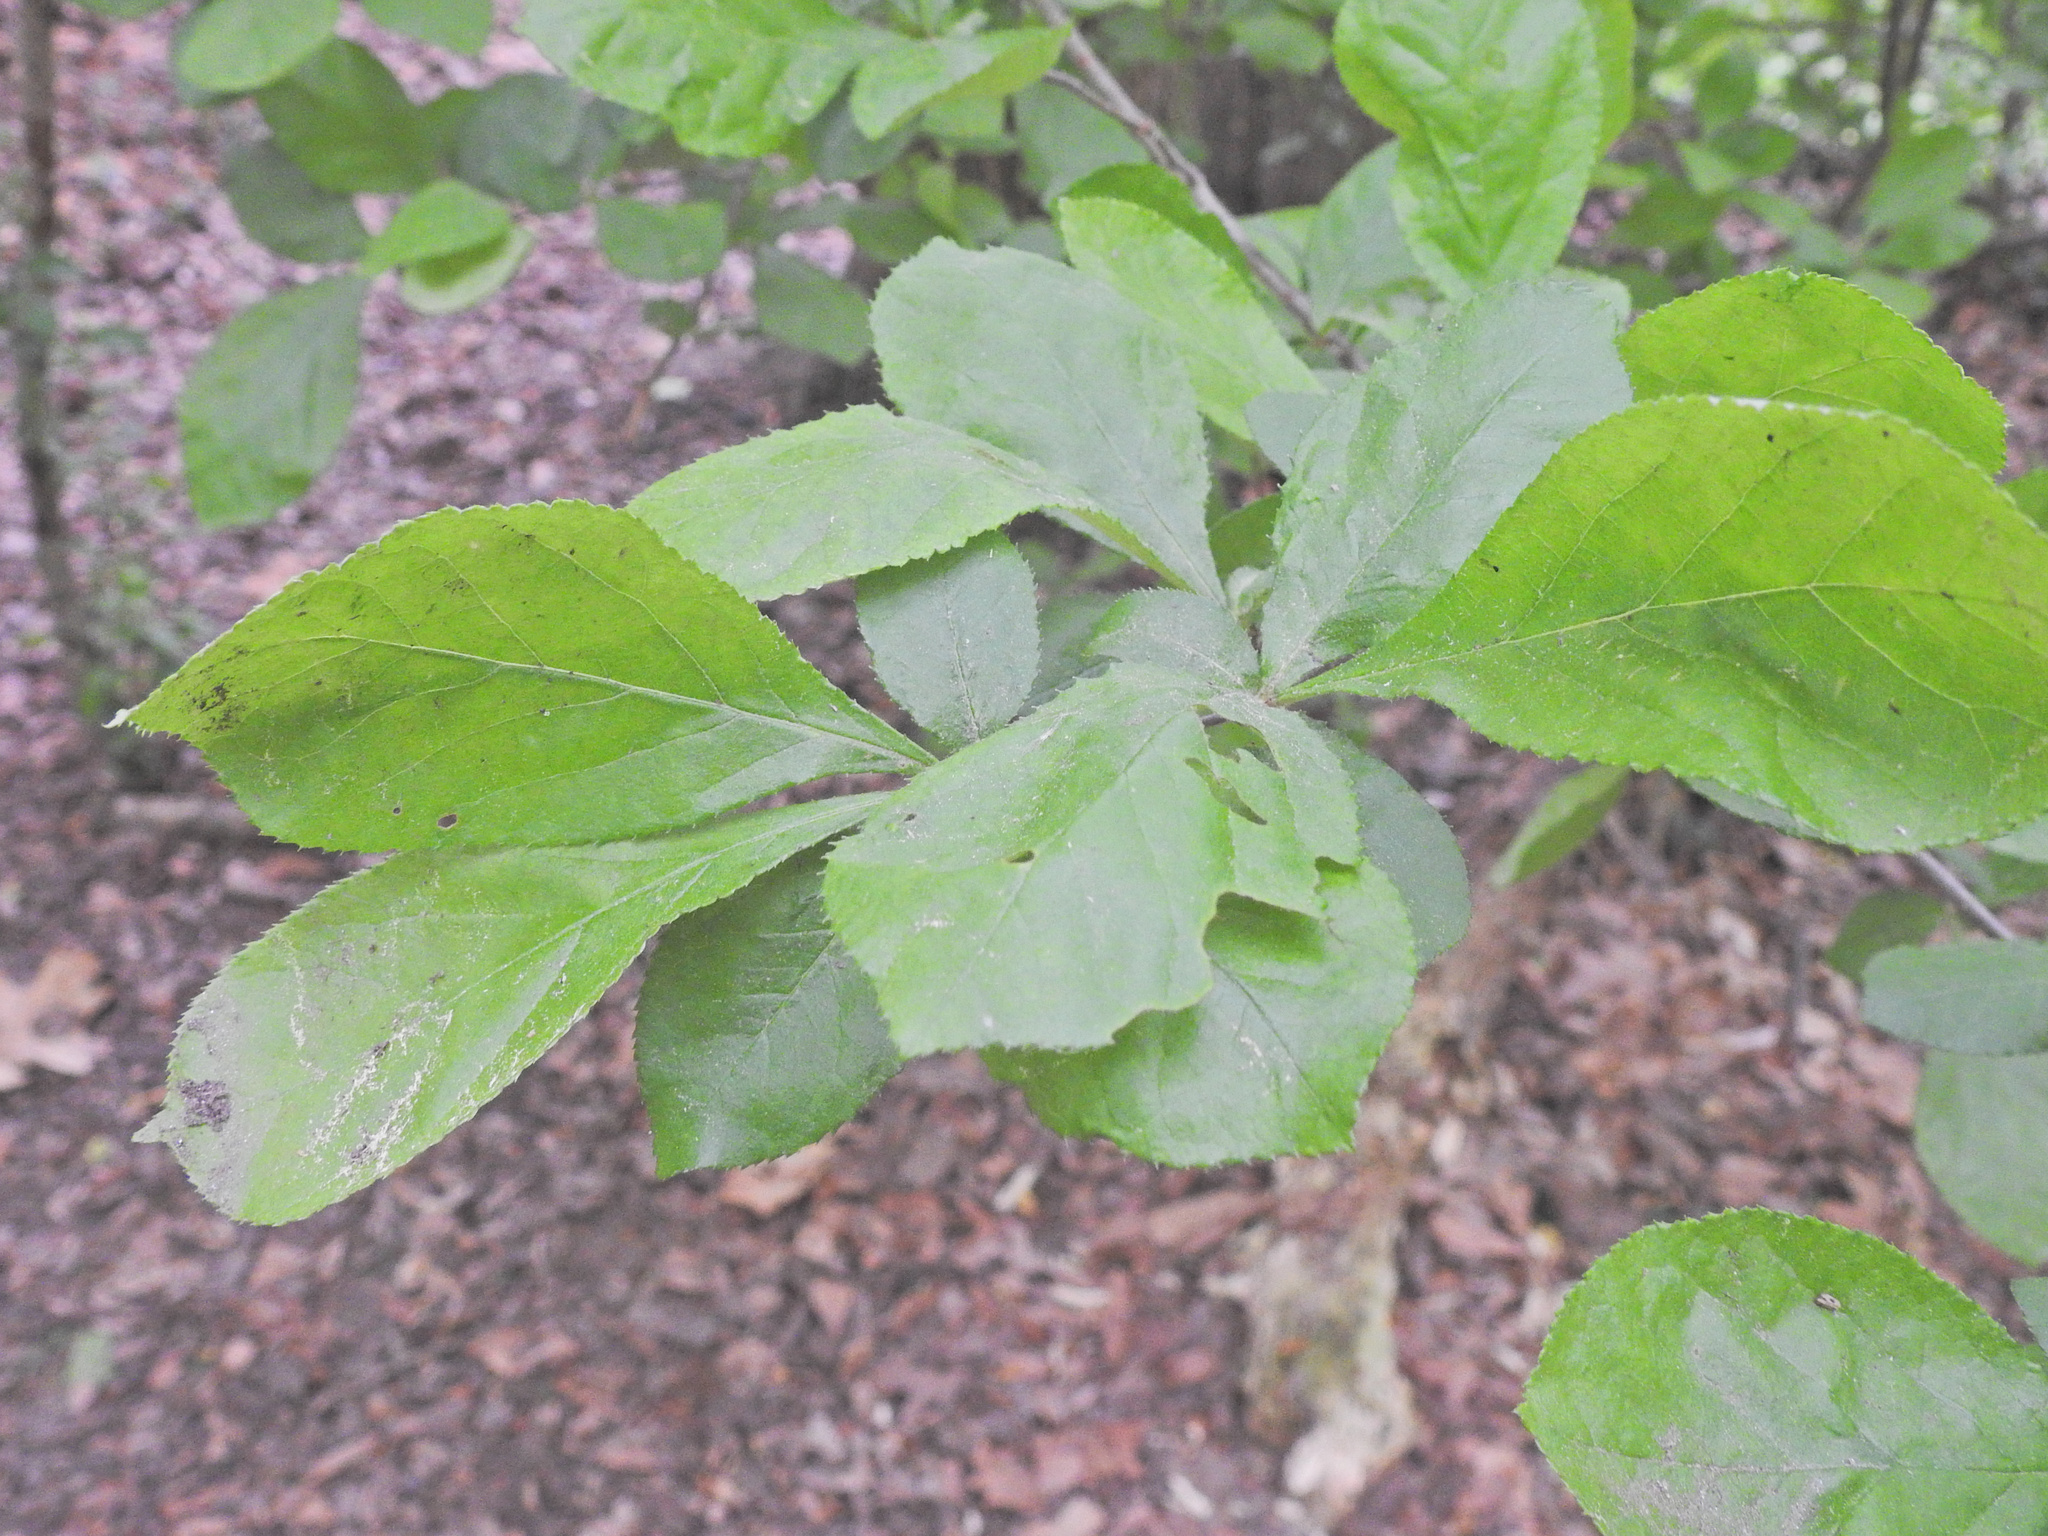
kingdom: Plantae
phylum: Tracheophyta
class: Magnoliopsida
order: Rosales
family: Rosaceae
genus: Pourthiaea
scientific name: Pourthiaea villosa
